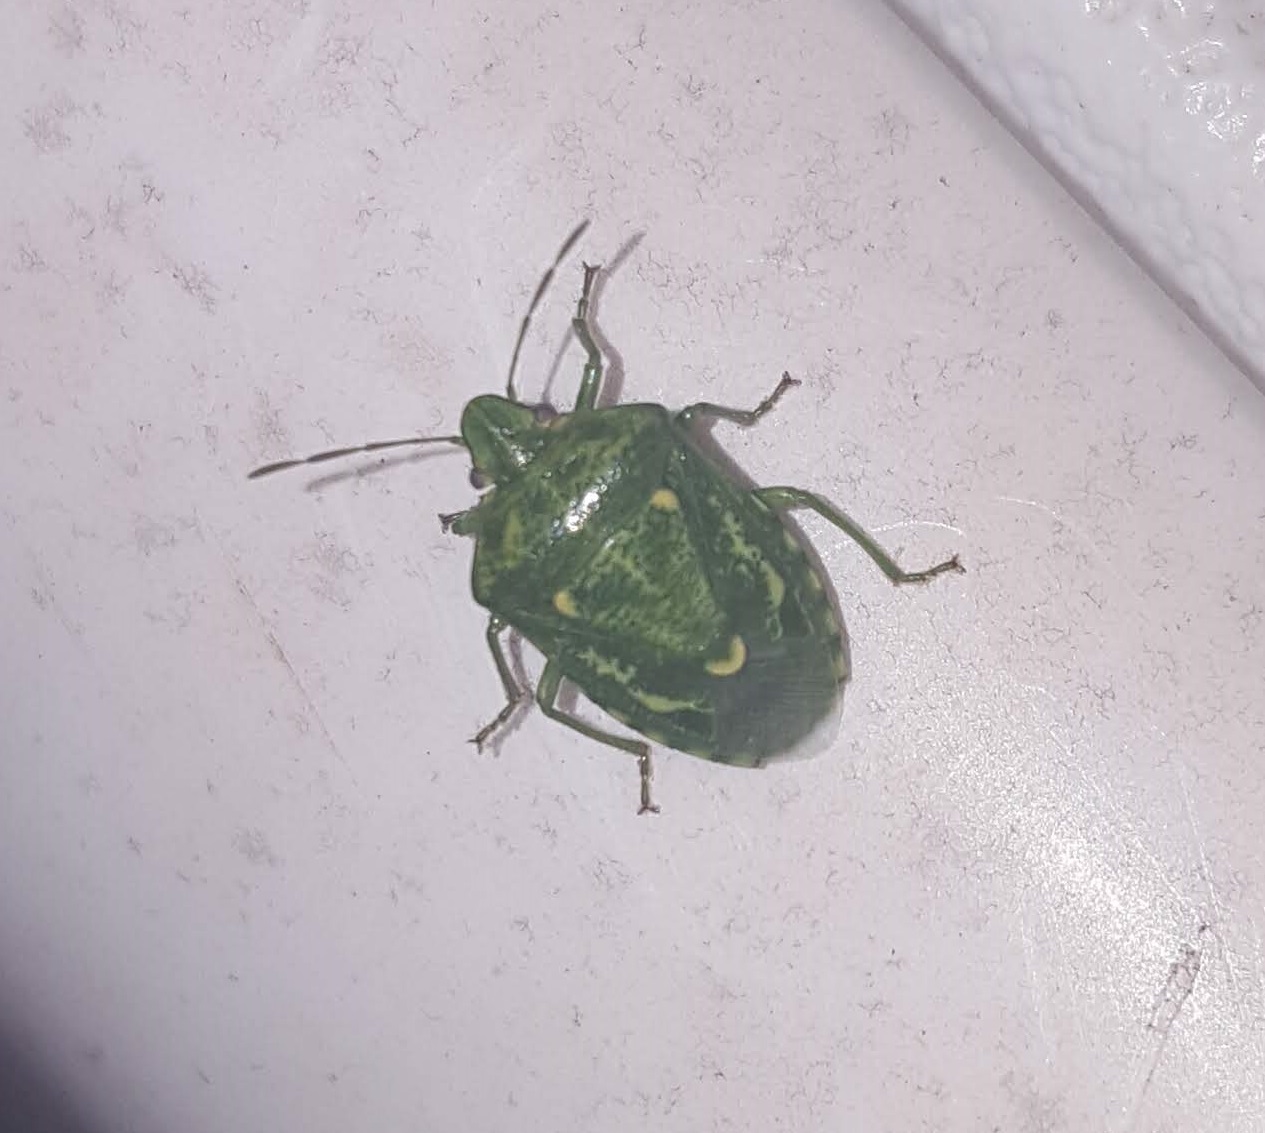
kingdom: Animalia
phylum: Arthropoda
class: Insecta
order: Hemiptera
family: Pentatomidae
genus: Banasa
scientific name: Banasa euchlora
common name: Cedar berry bug
